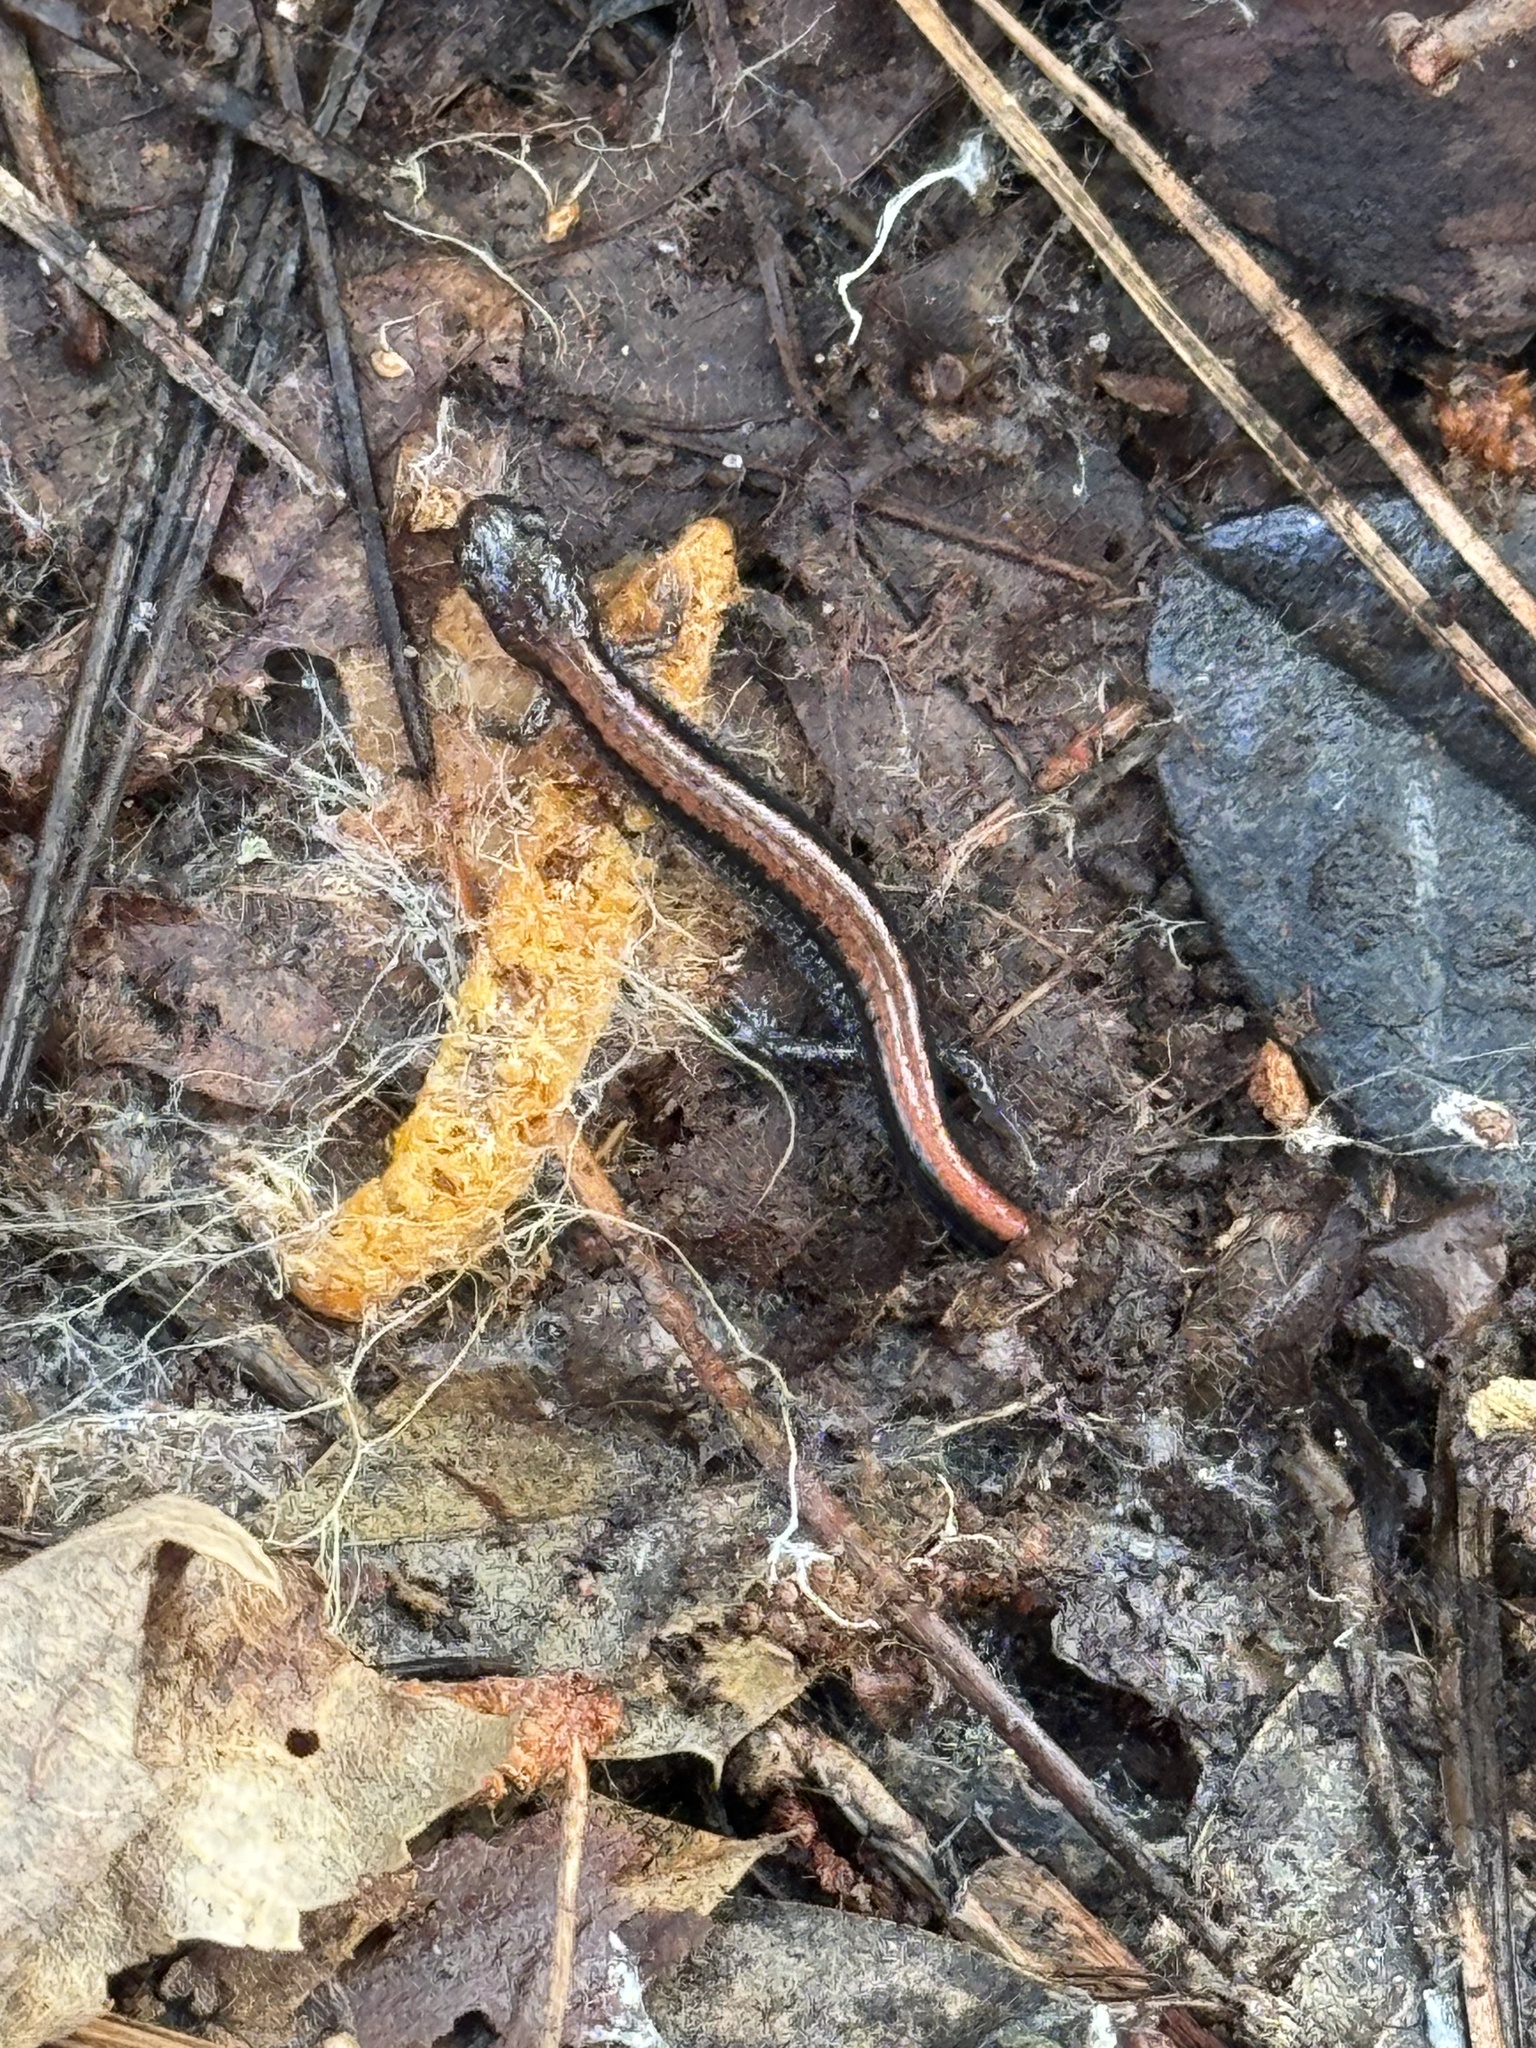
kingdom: Animalia
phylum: Chordata
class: Amphibia
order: Caudata
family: Plethodontidae
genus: Plethodon
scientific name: Plethodon cinereus
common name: Redback salamander
